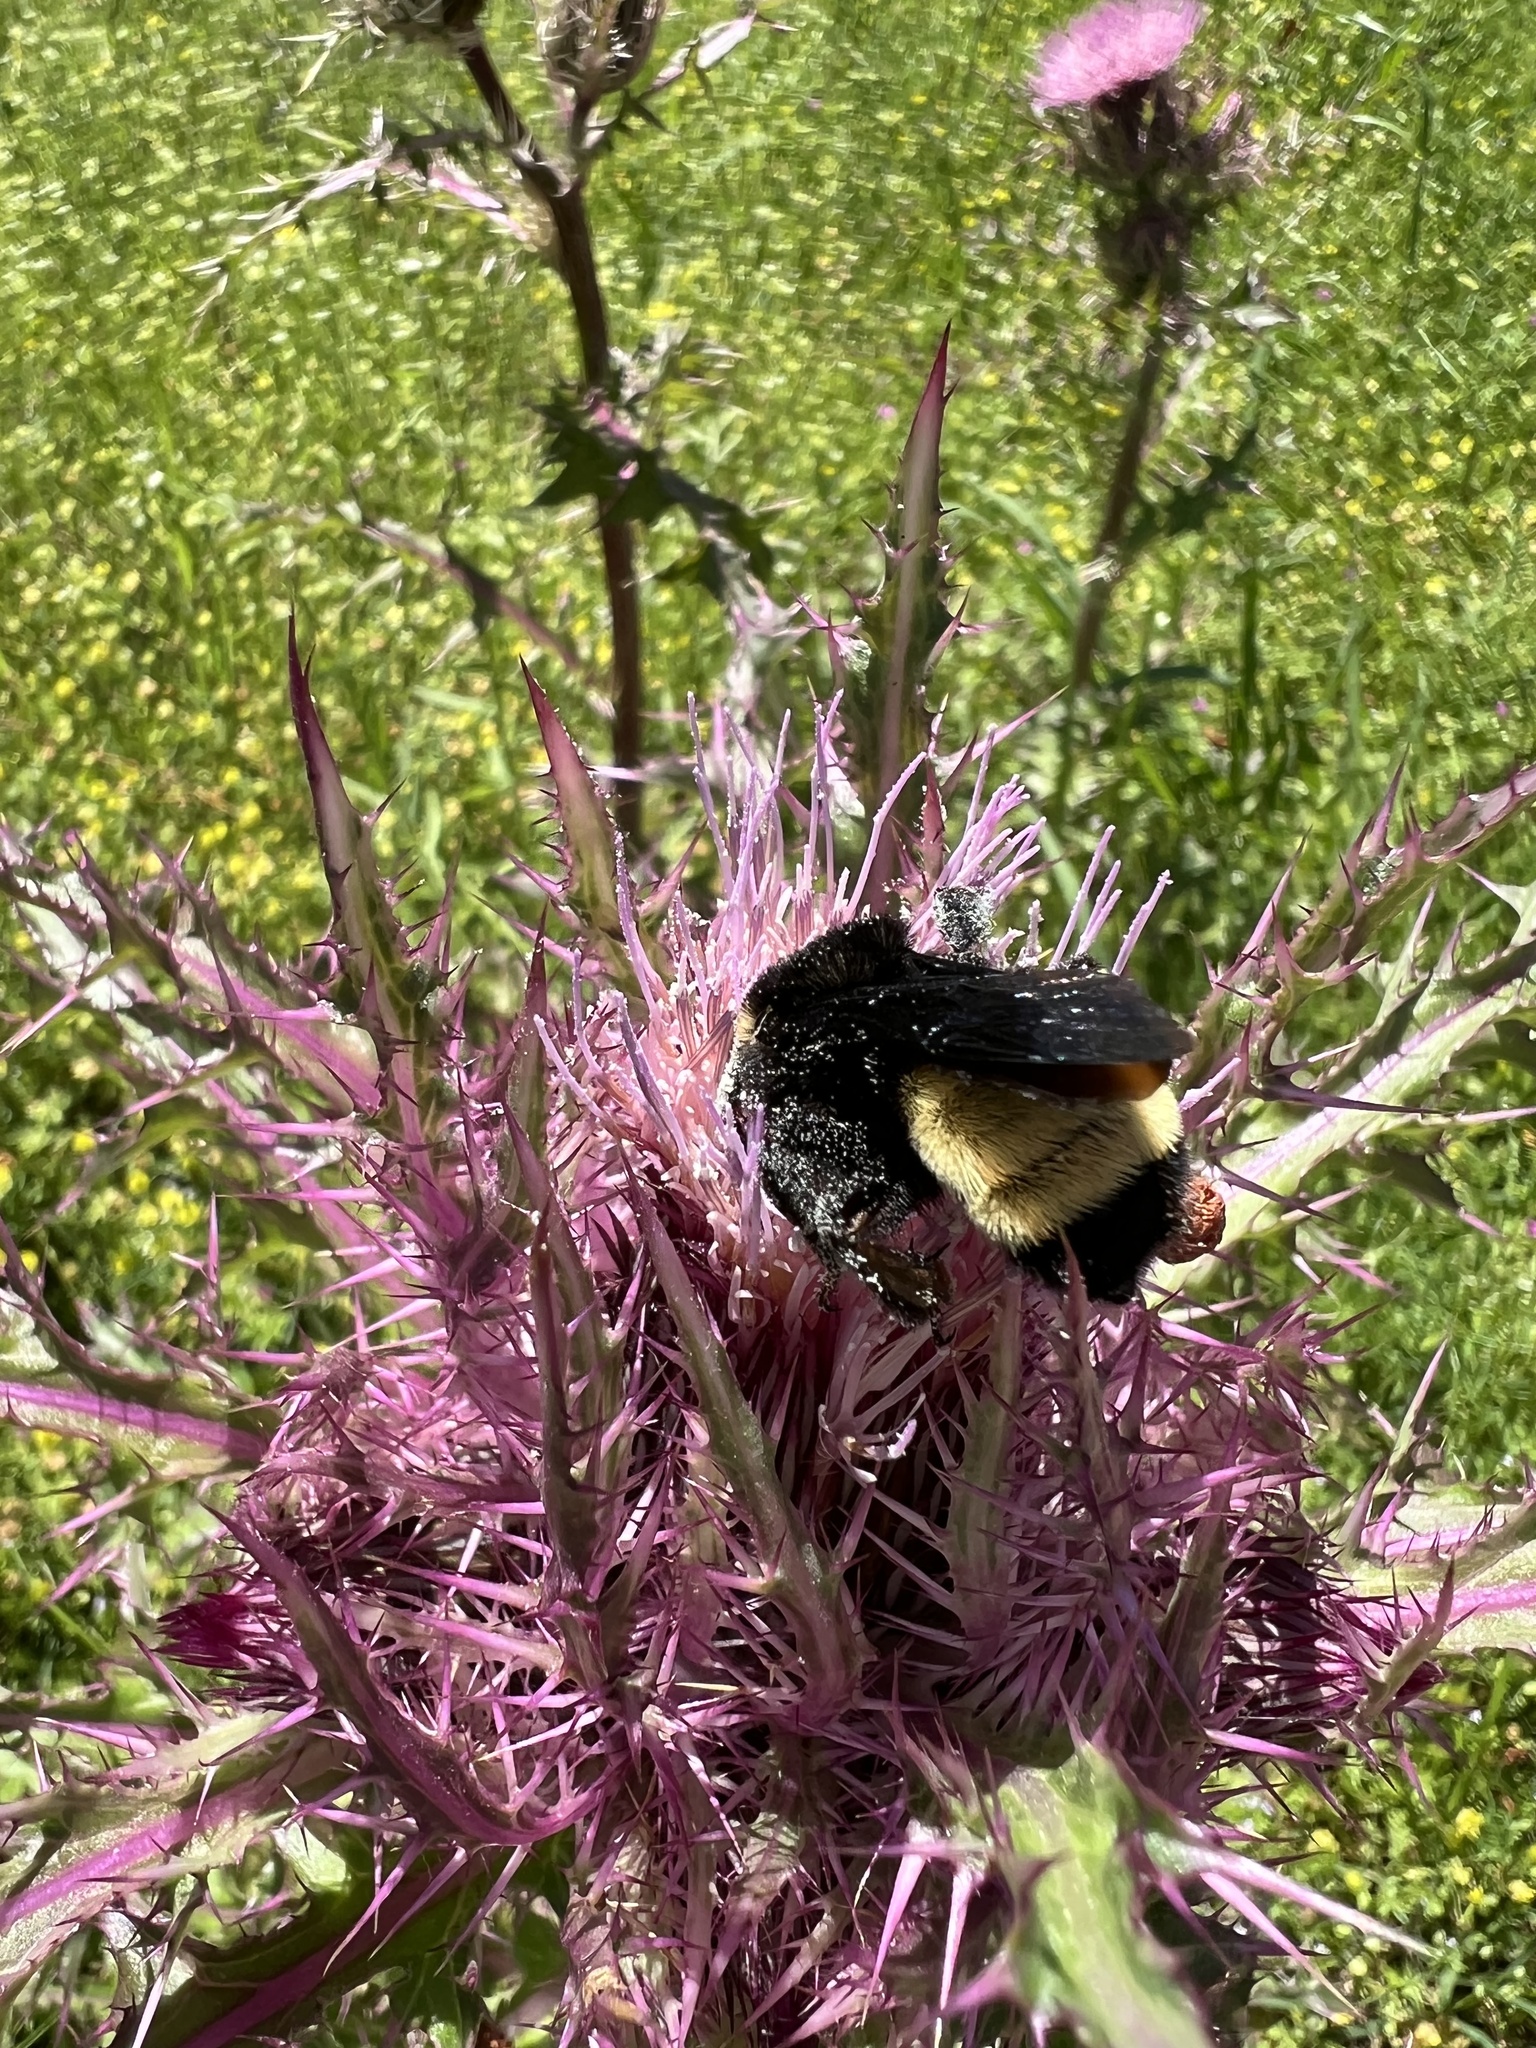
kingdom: Animalia
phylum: Arthropoda
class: Insecta
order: Hymenoptera
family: Apidae
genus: Bombus
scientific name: Bombus pensylvanicus
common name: Bumble bee
